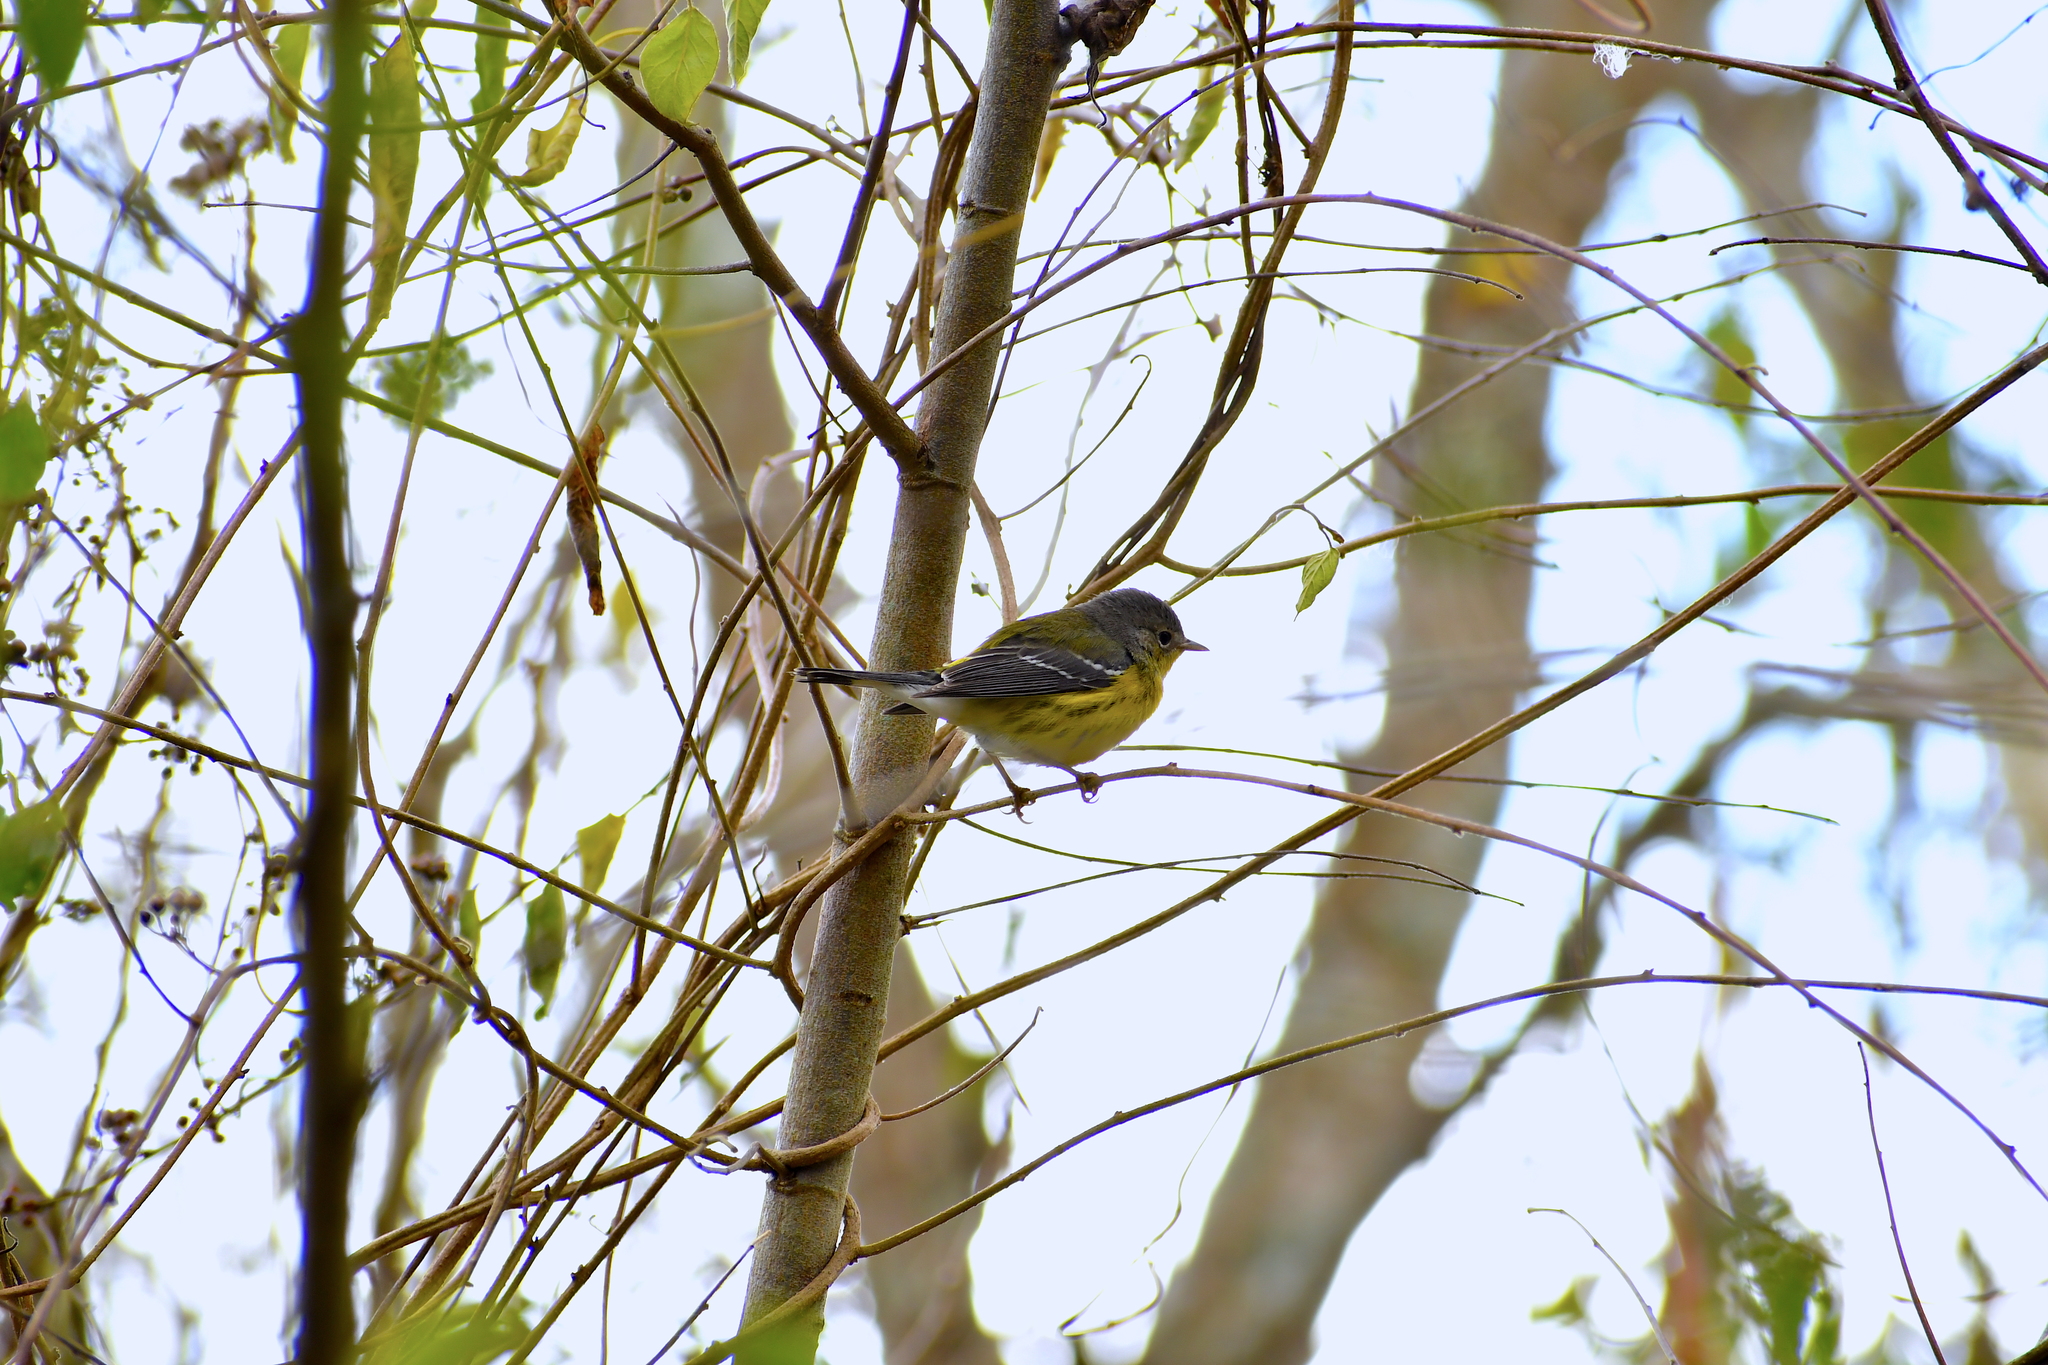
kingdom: Animalia
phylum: Chordata
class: Aves
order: Passeriformes
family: Parulidae
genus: Setophaga
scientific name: Setophaga magnolia
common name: Magnolia warbler
